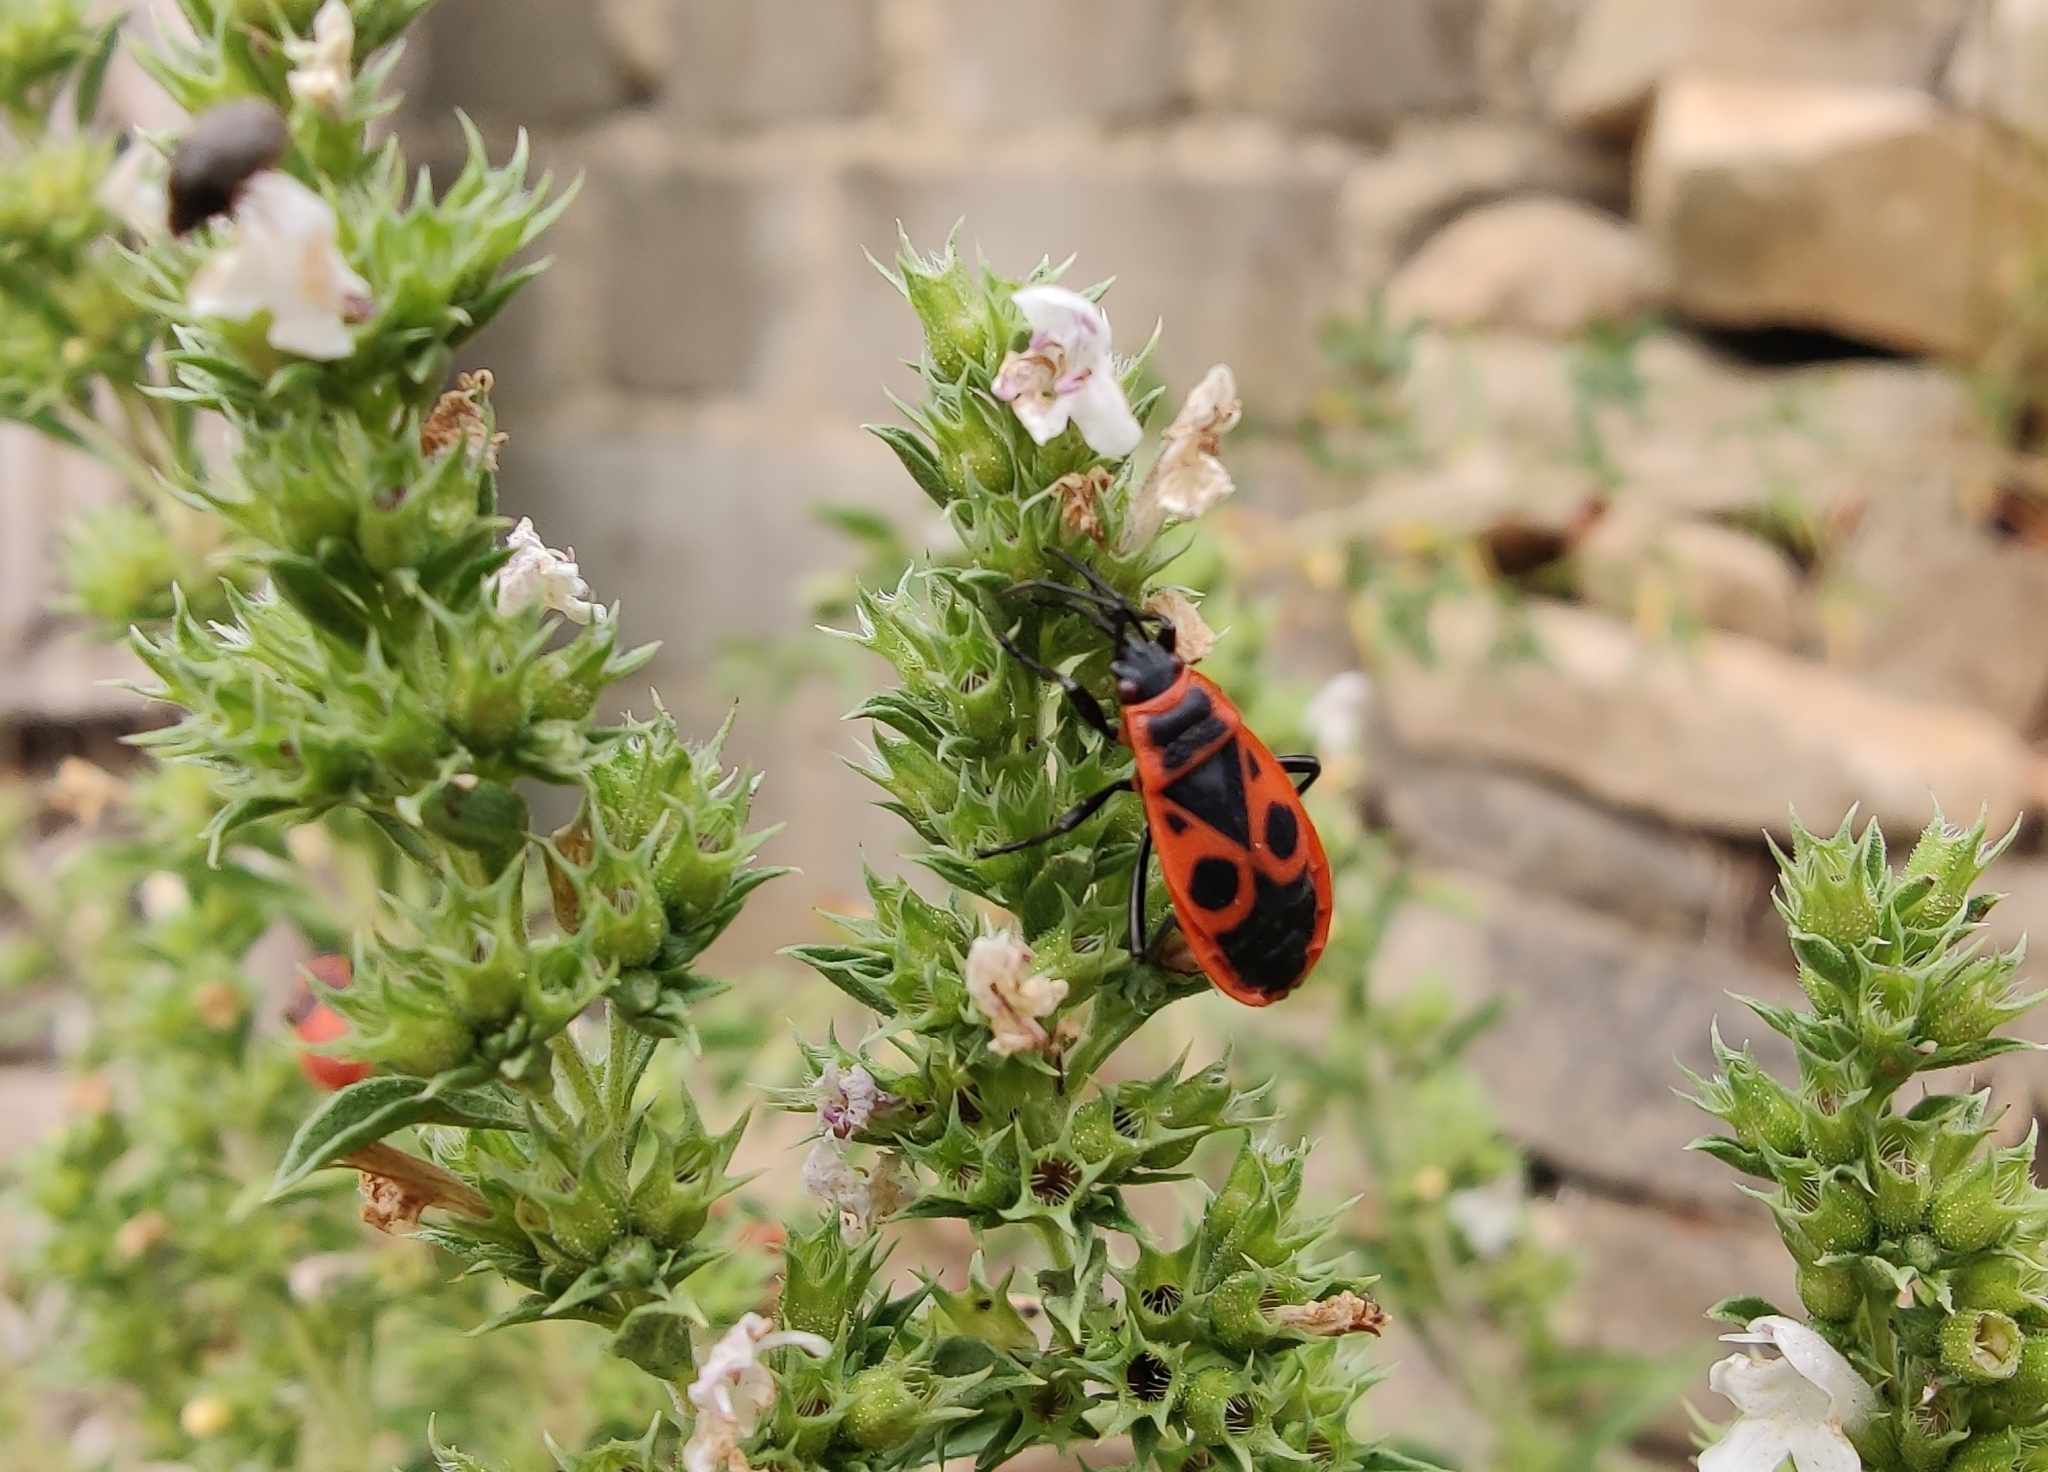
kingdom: Animalia
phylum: Arthropoda
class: Insecta
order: Hemiptera
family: Pyrrhocoridae
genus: Pyrrhocoris
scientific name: Pyrrhocoris apterus
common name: Firebug
